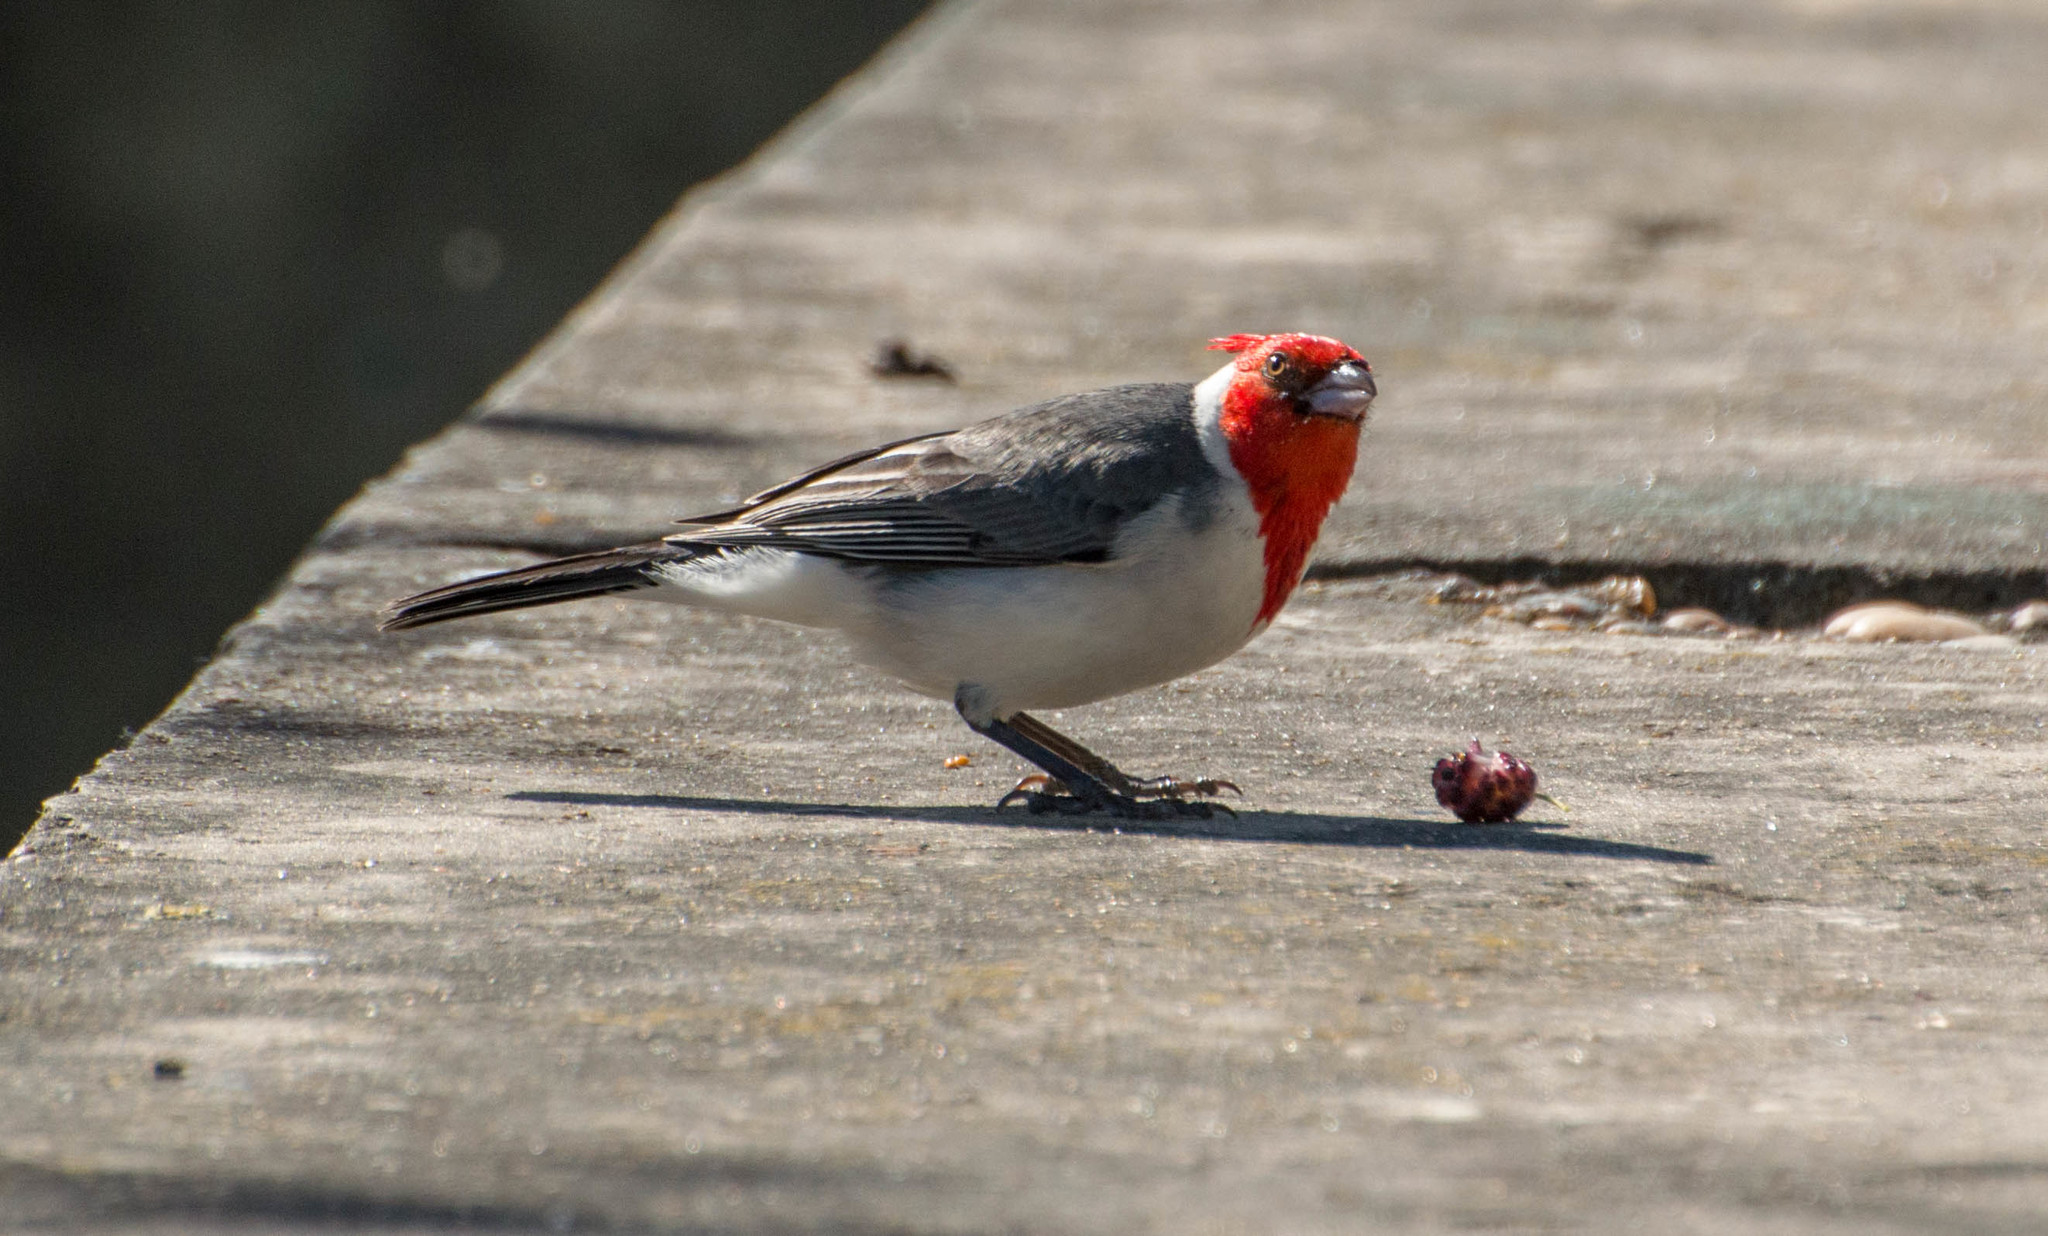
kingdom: Animalia
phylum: Chordata
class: Aves
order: Passeriformes
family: Thraupidae
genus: Paroaria
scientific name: Paroaria coronata
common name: Red-crested cardinal
